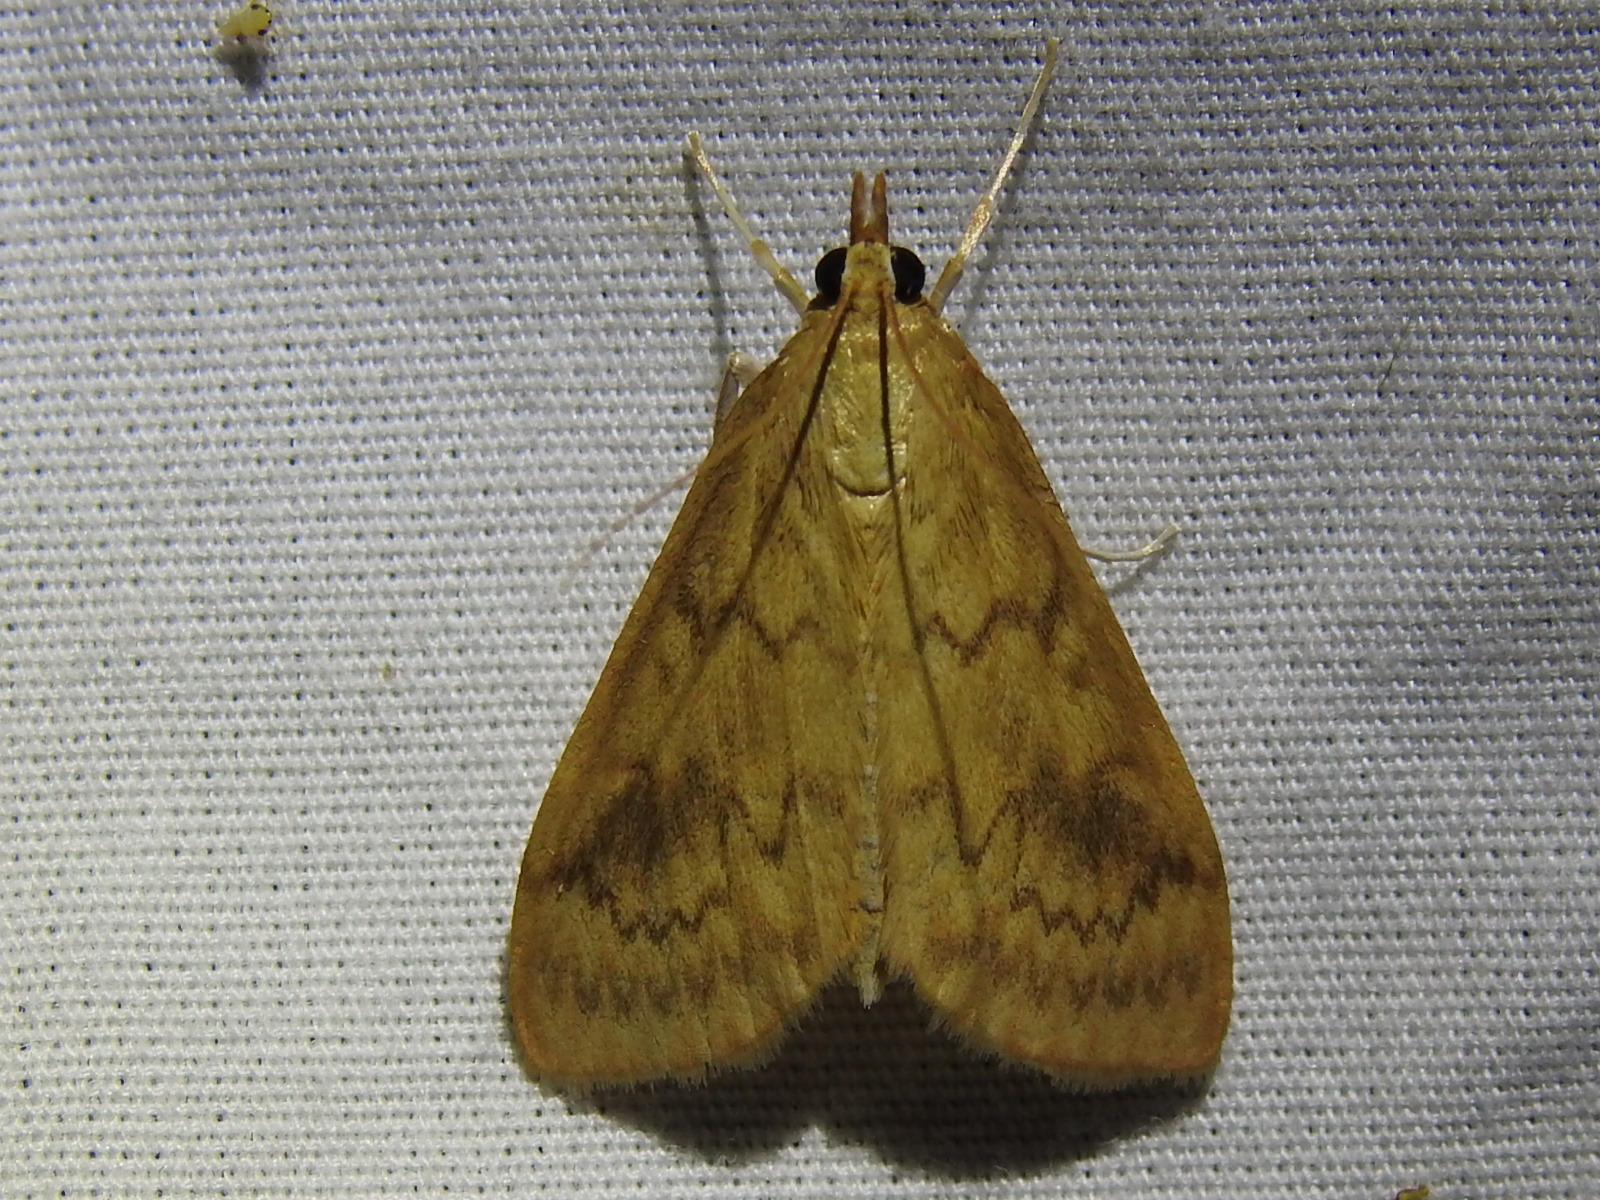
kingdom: Animalia
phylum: Arthropoda
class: Insecta
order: Lepidoptera
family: Crambidae
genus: Ostrinia
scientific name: Ostrinia penitalis
